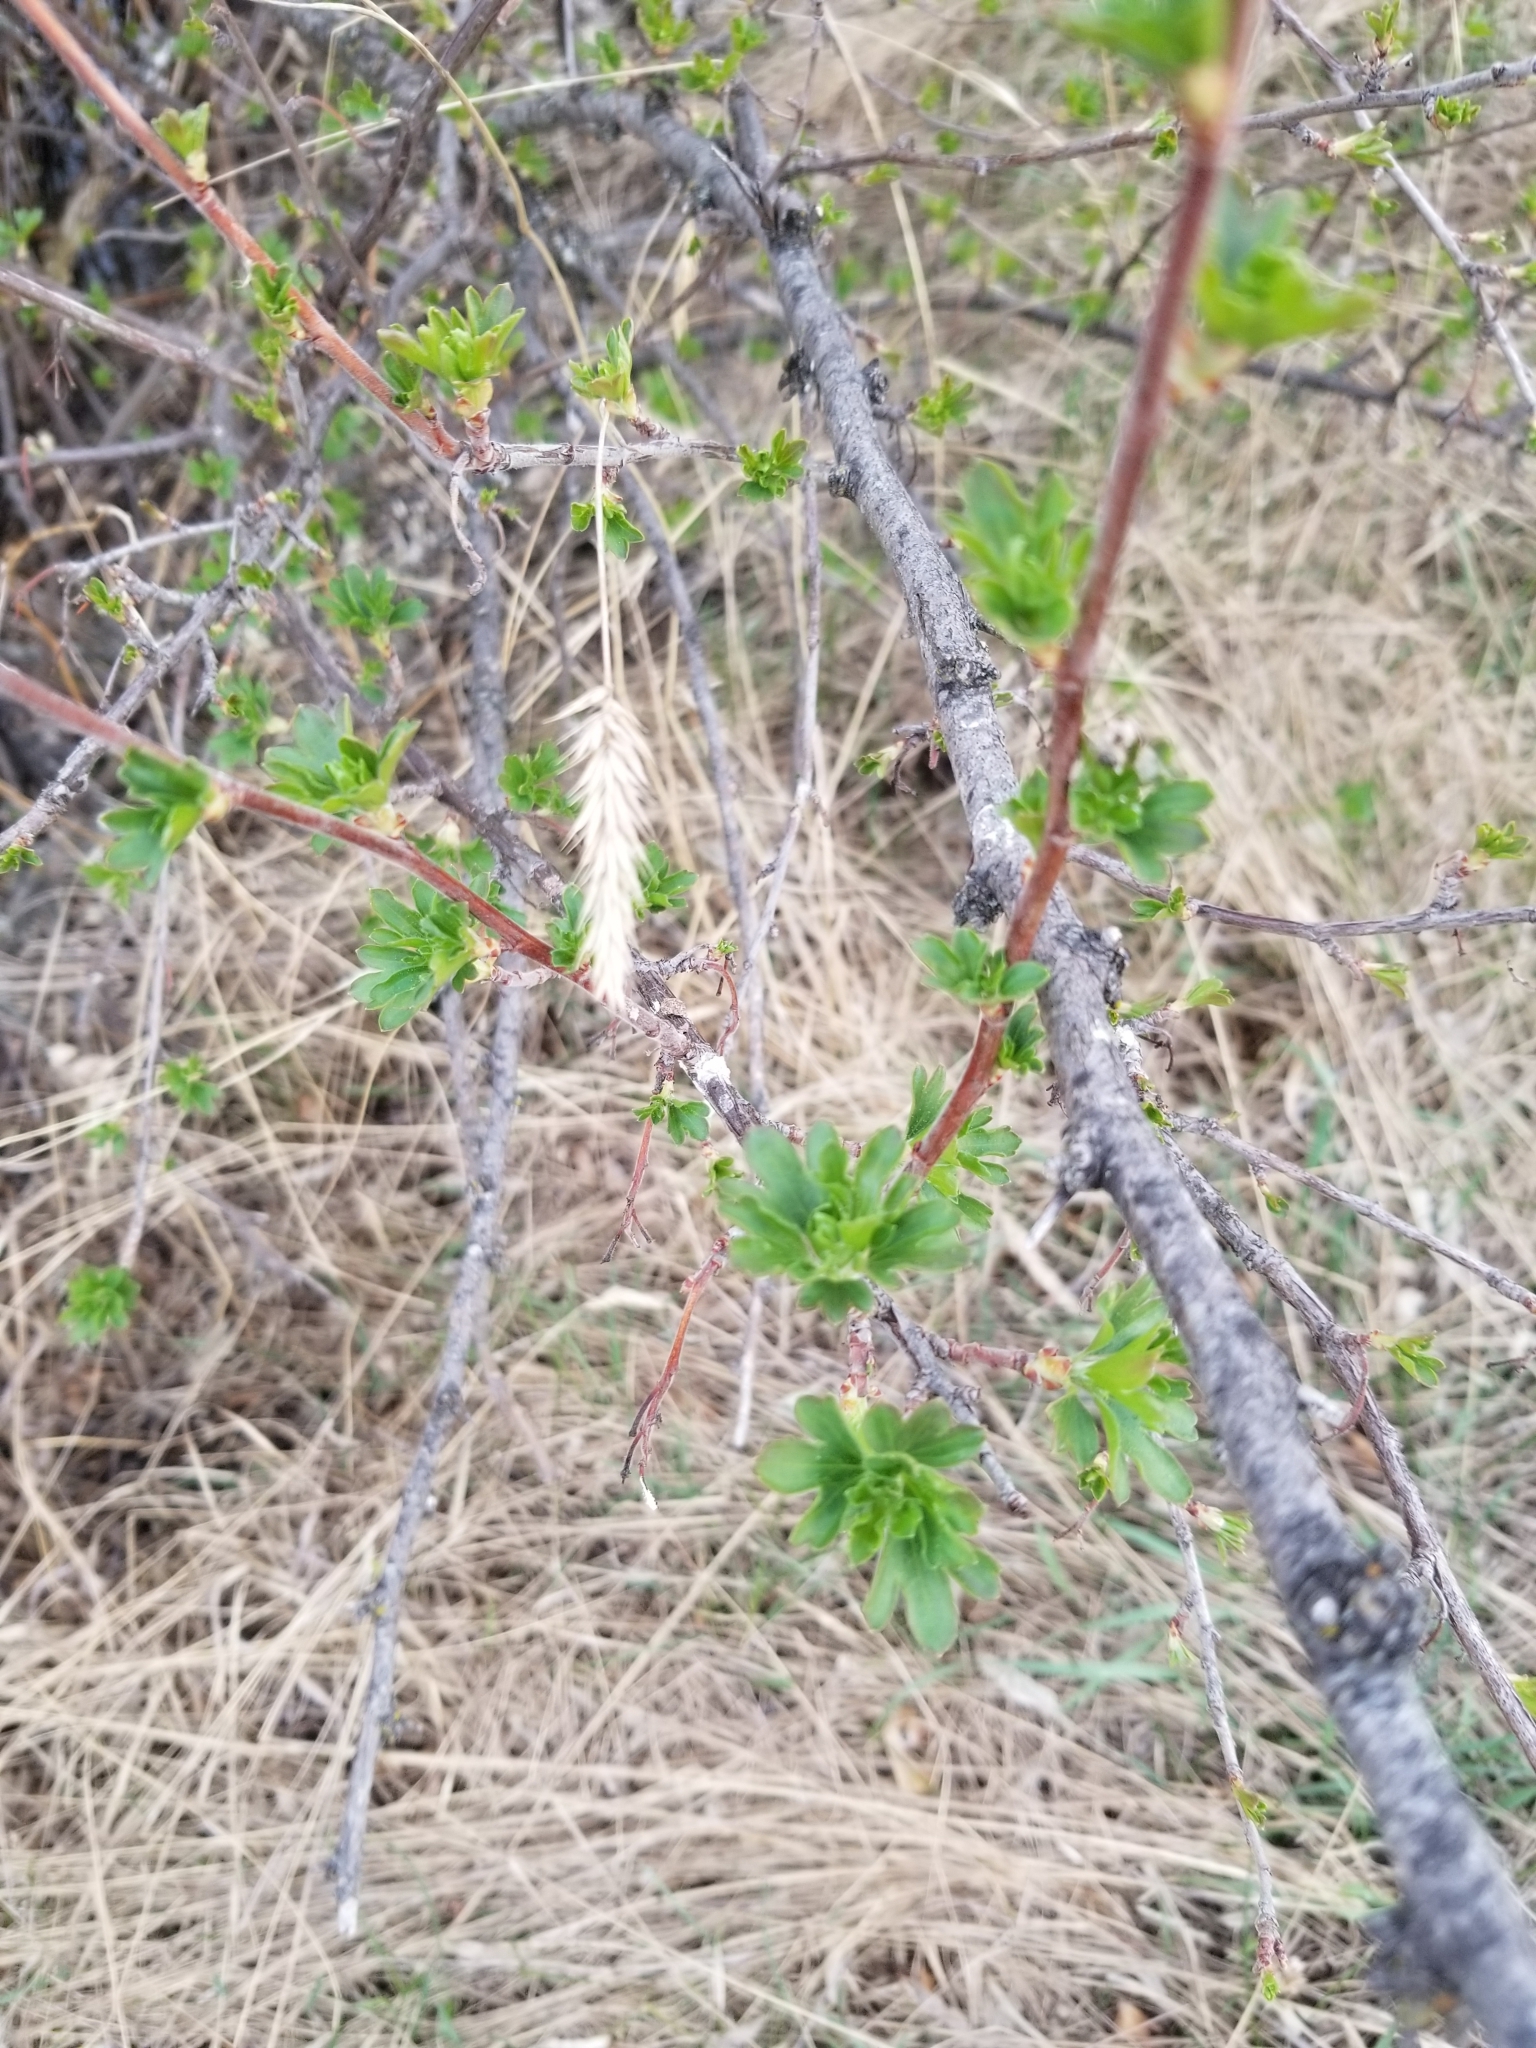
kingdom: Plantae
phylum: Tracheophyta
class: Magnoliopsida
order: Saxifragales
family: Grossulariaceae
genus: Ribes
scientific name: Ribes aureum
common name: Golden currant
